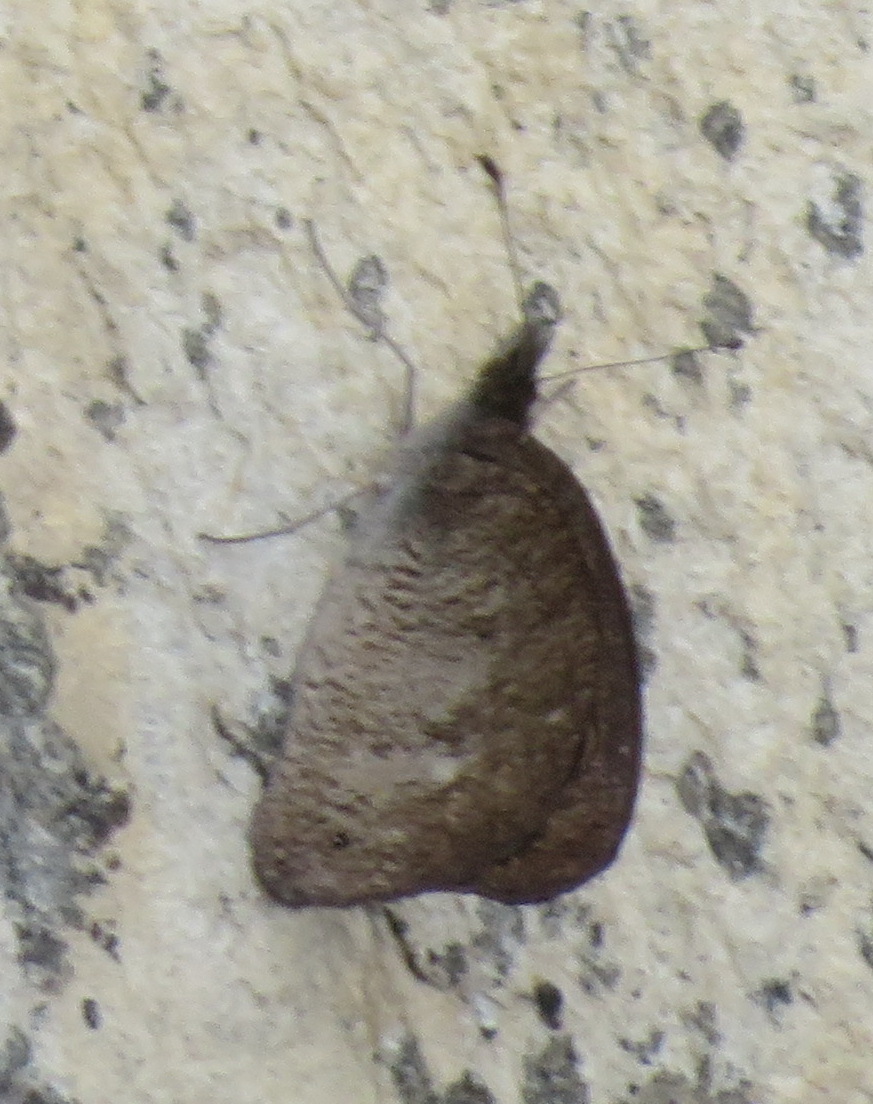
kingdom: Animalia
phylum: Arthropoda
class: Insecta
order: Lepidoptera
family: Nymphalidae
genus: Stygionympha
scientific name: Stygionympha vigilans
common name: Western hillside brown
